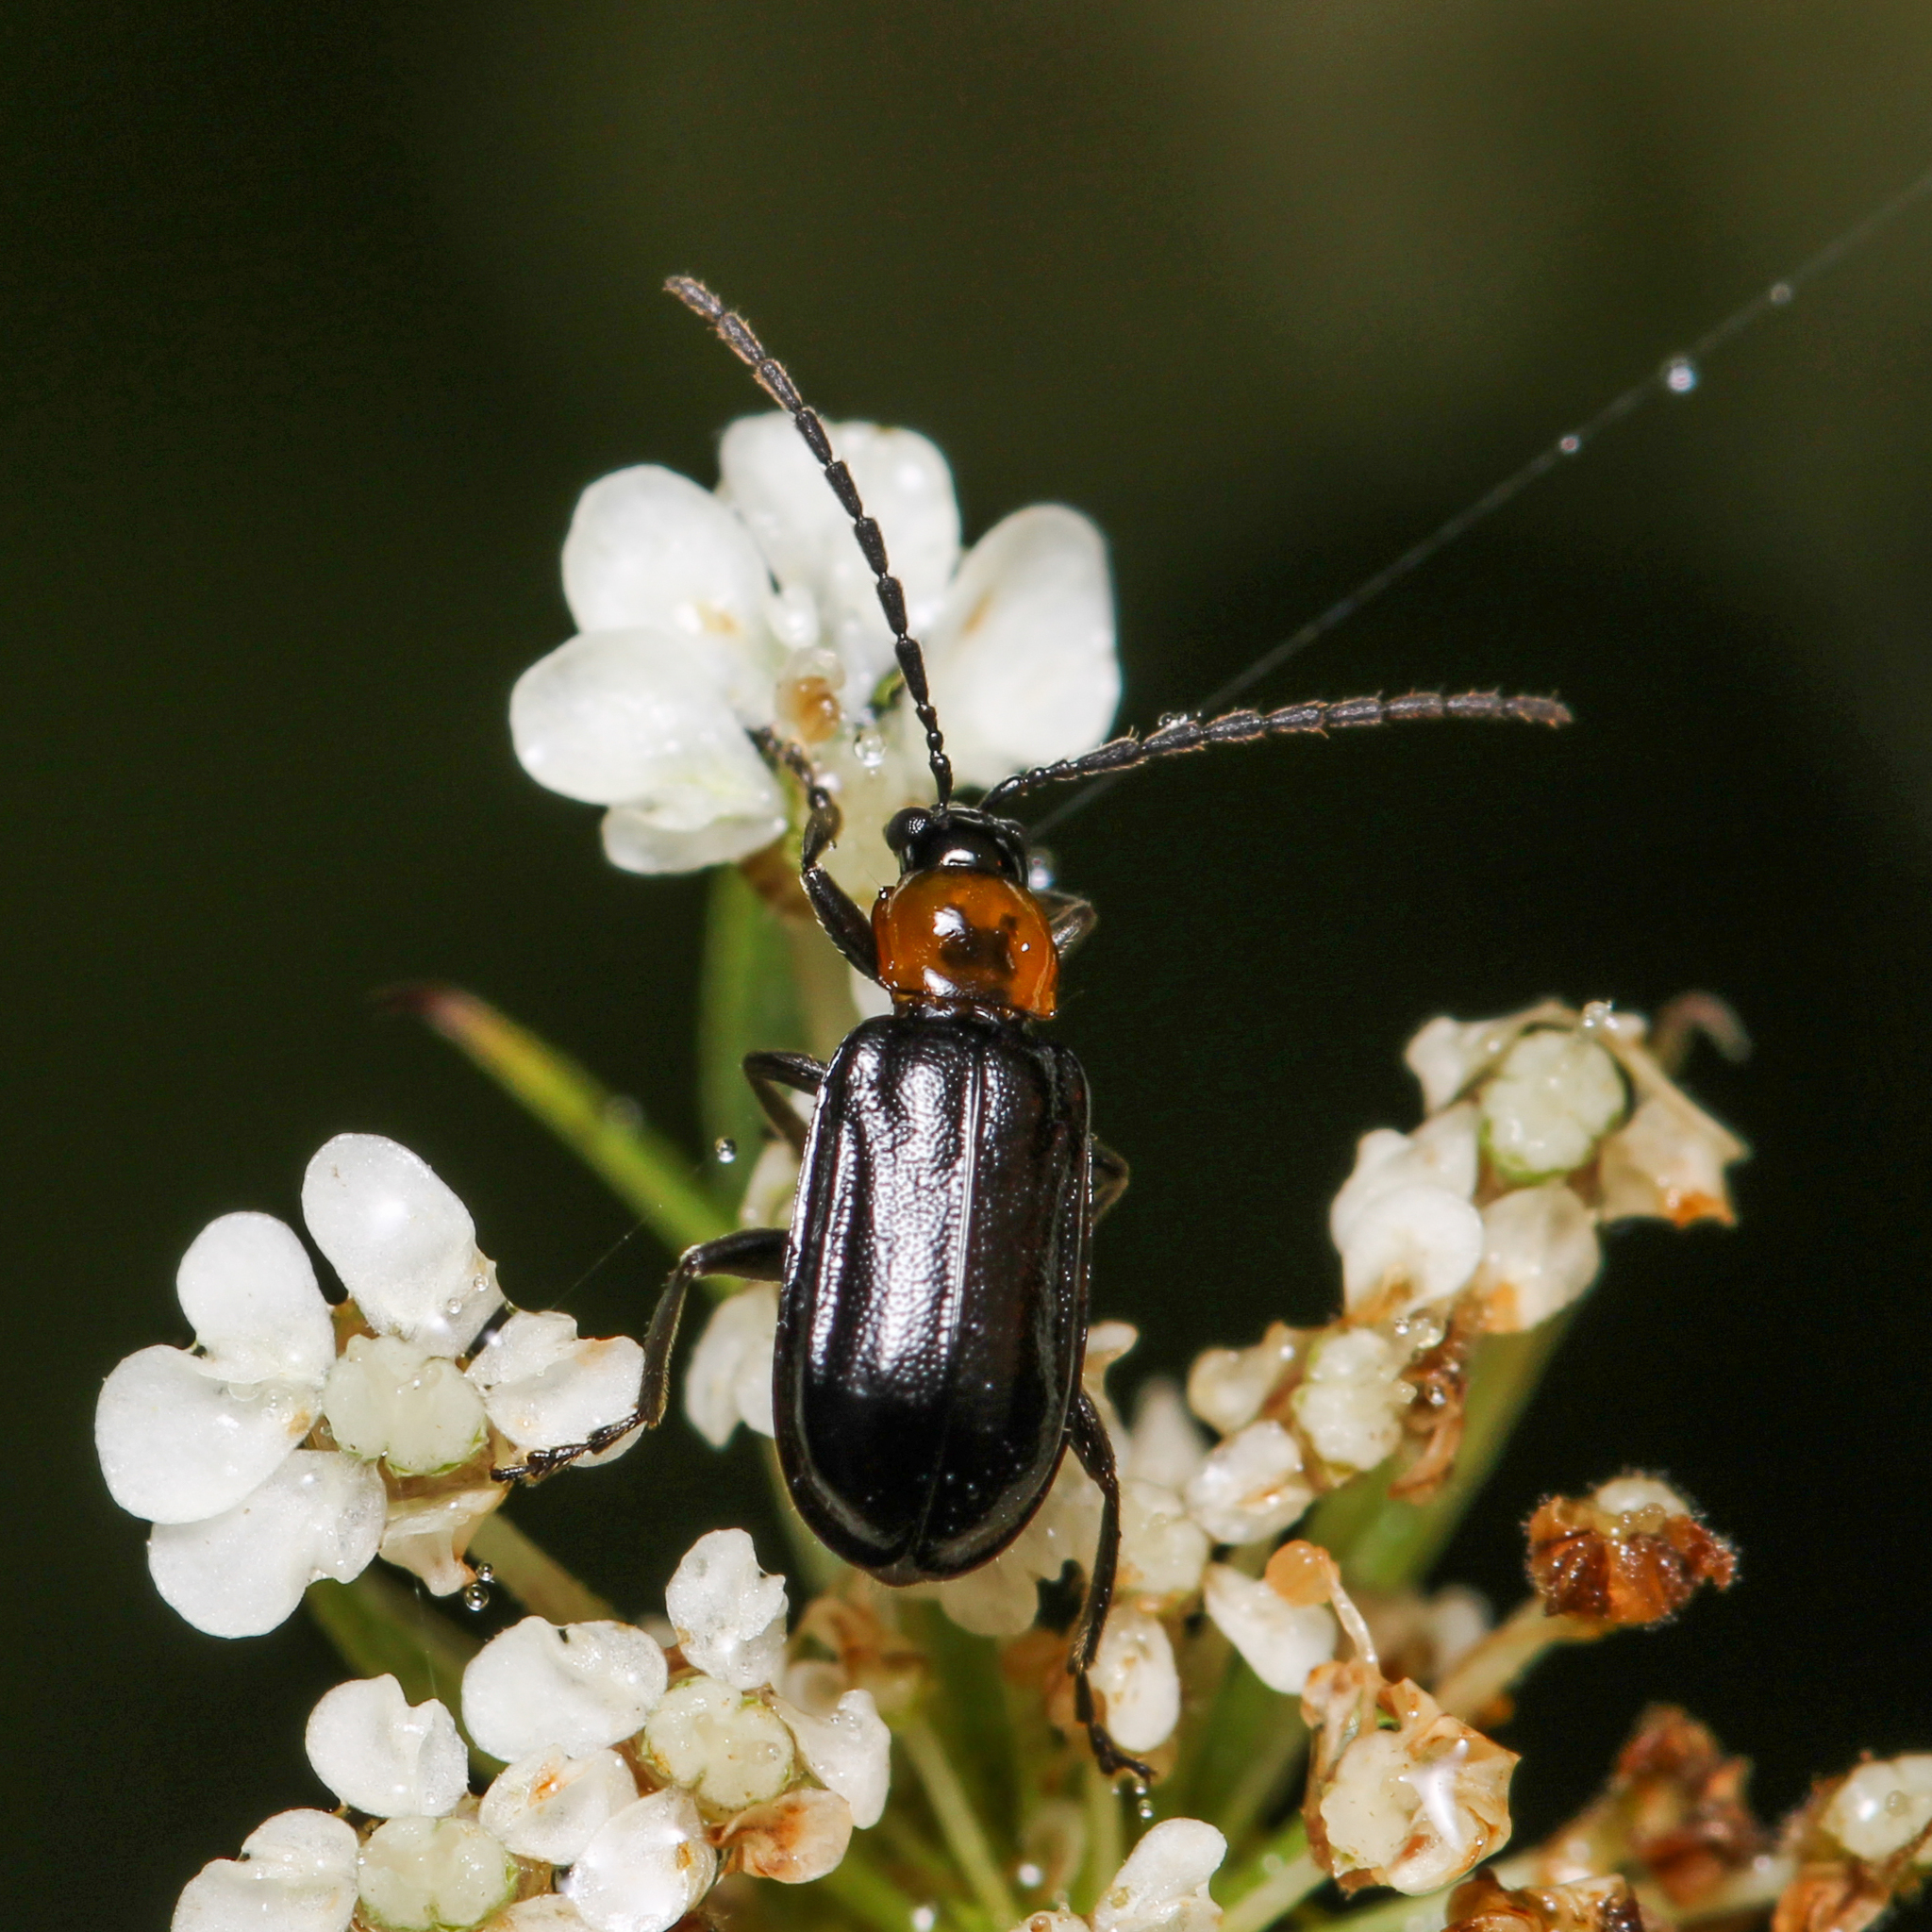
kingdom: Animalia
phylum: Arthropoda
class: Insecta
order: Coleoptera
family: Chrysomelidae
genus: Diabrotica
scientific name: Diabrotica cristata
